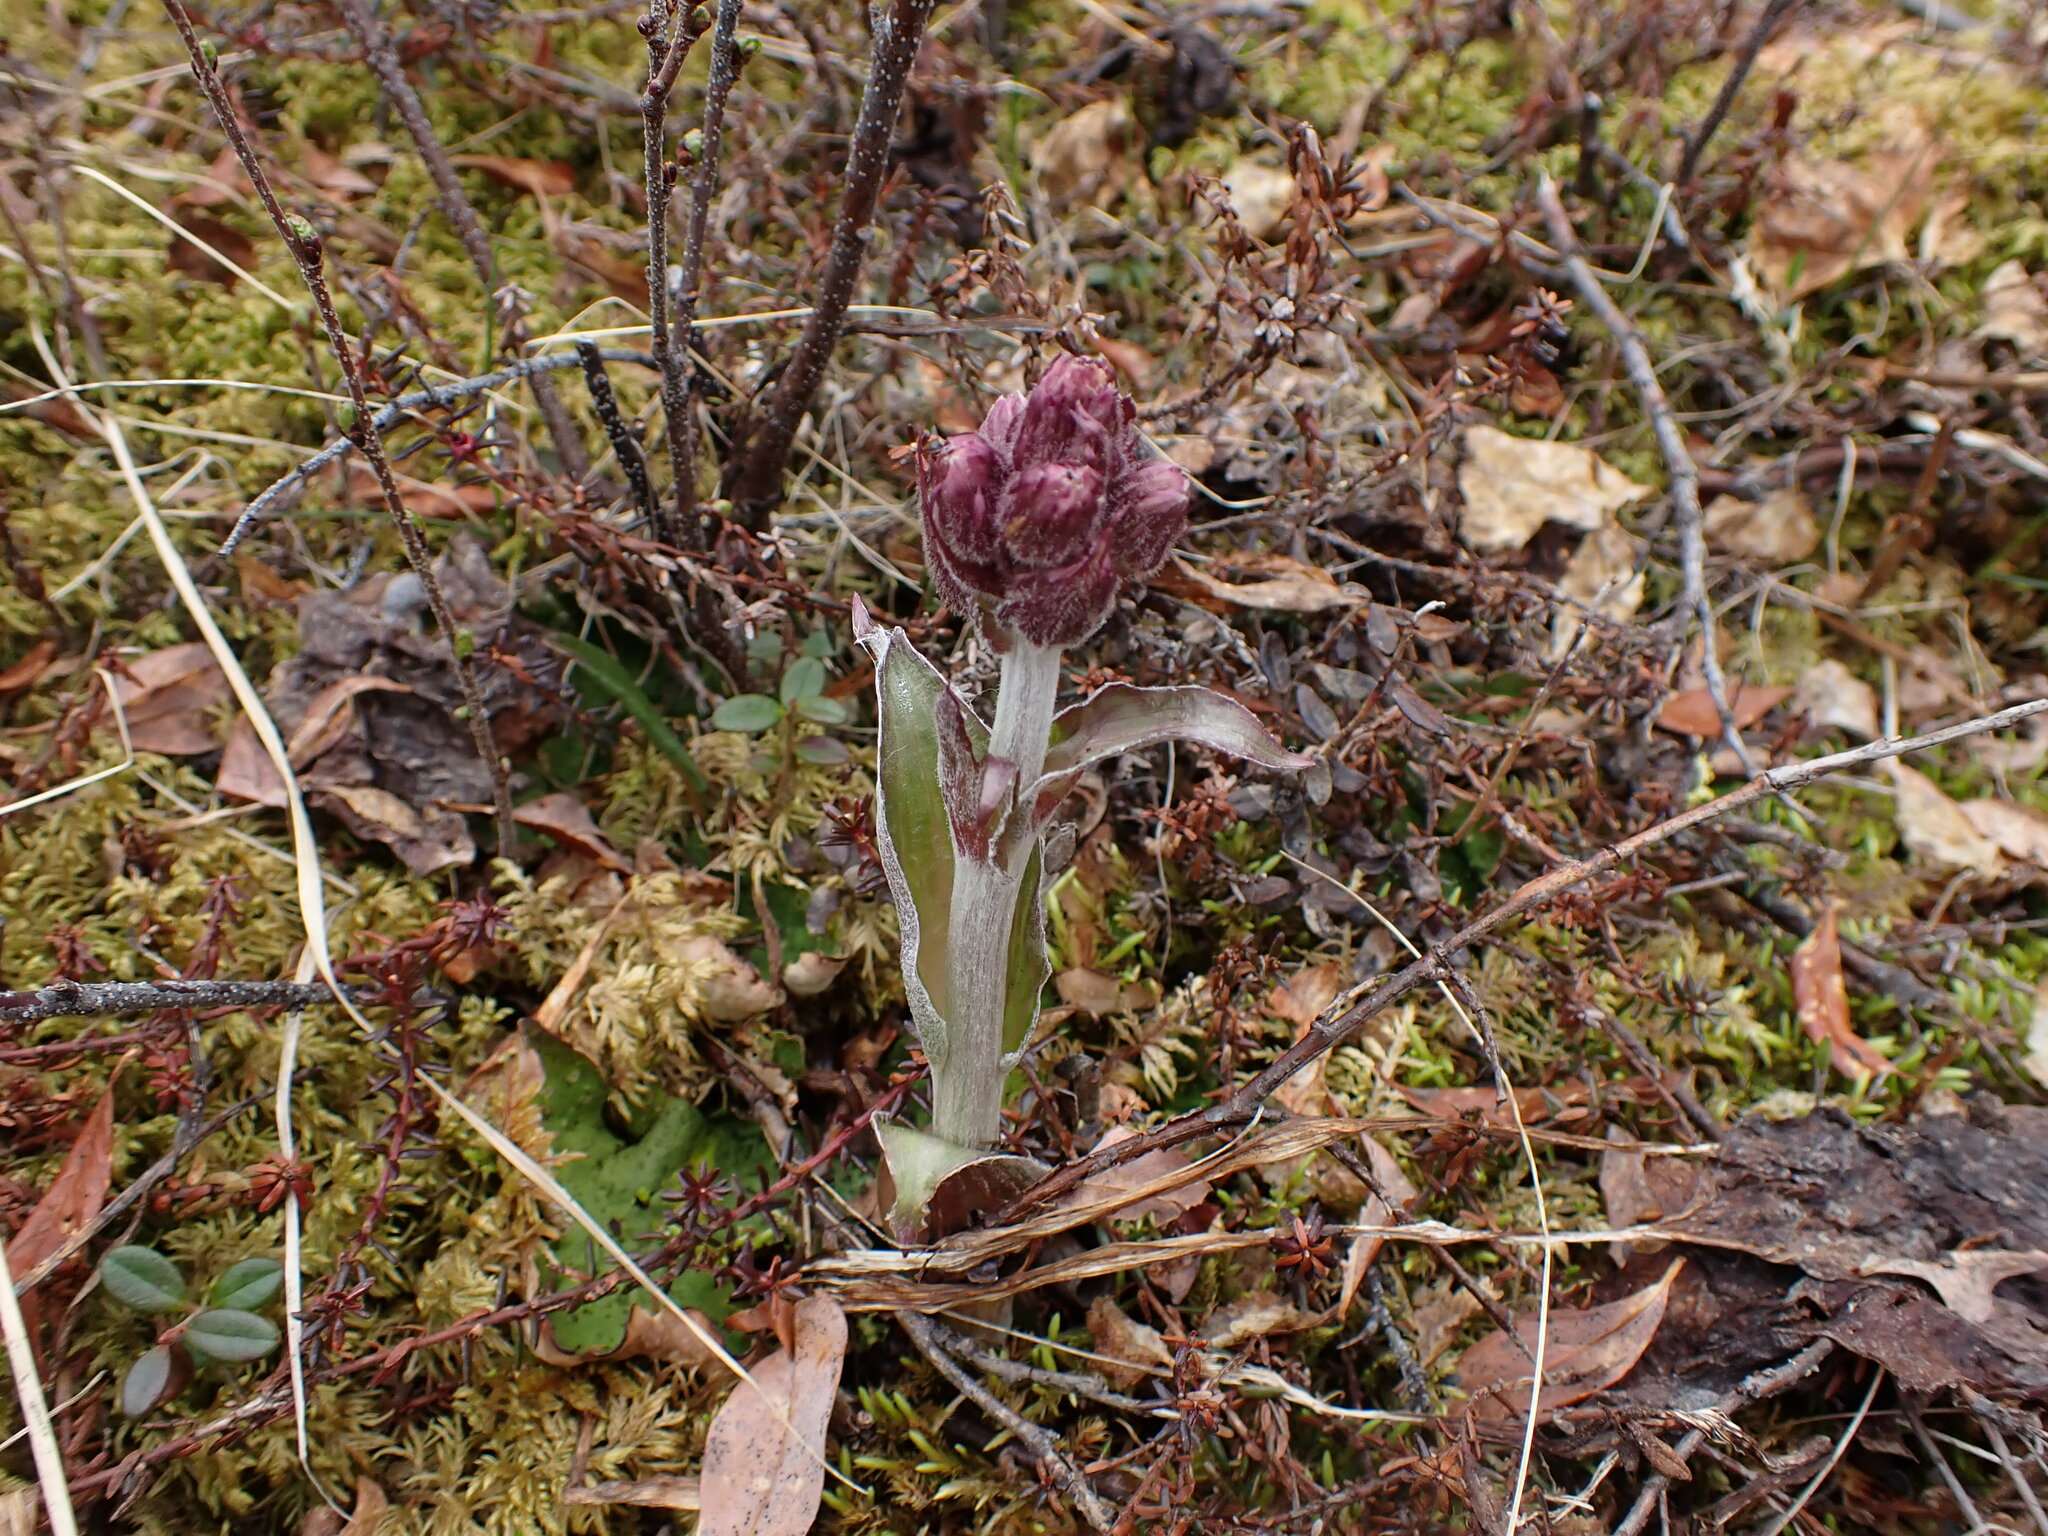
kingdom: Plantae
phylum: Tracheophyta
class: Magnoliopsida
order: Asterales
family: Asteraceae
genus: Petasites
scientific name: Petasites frigidus
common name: Arctic butterbur
